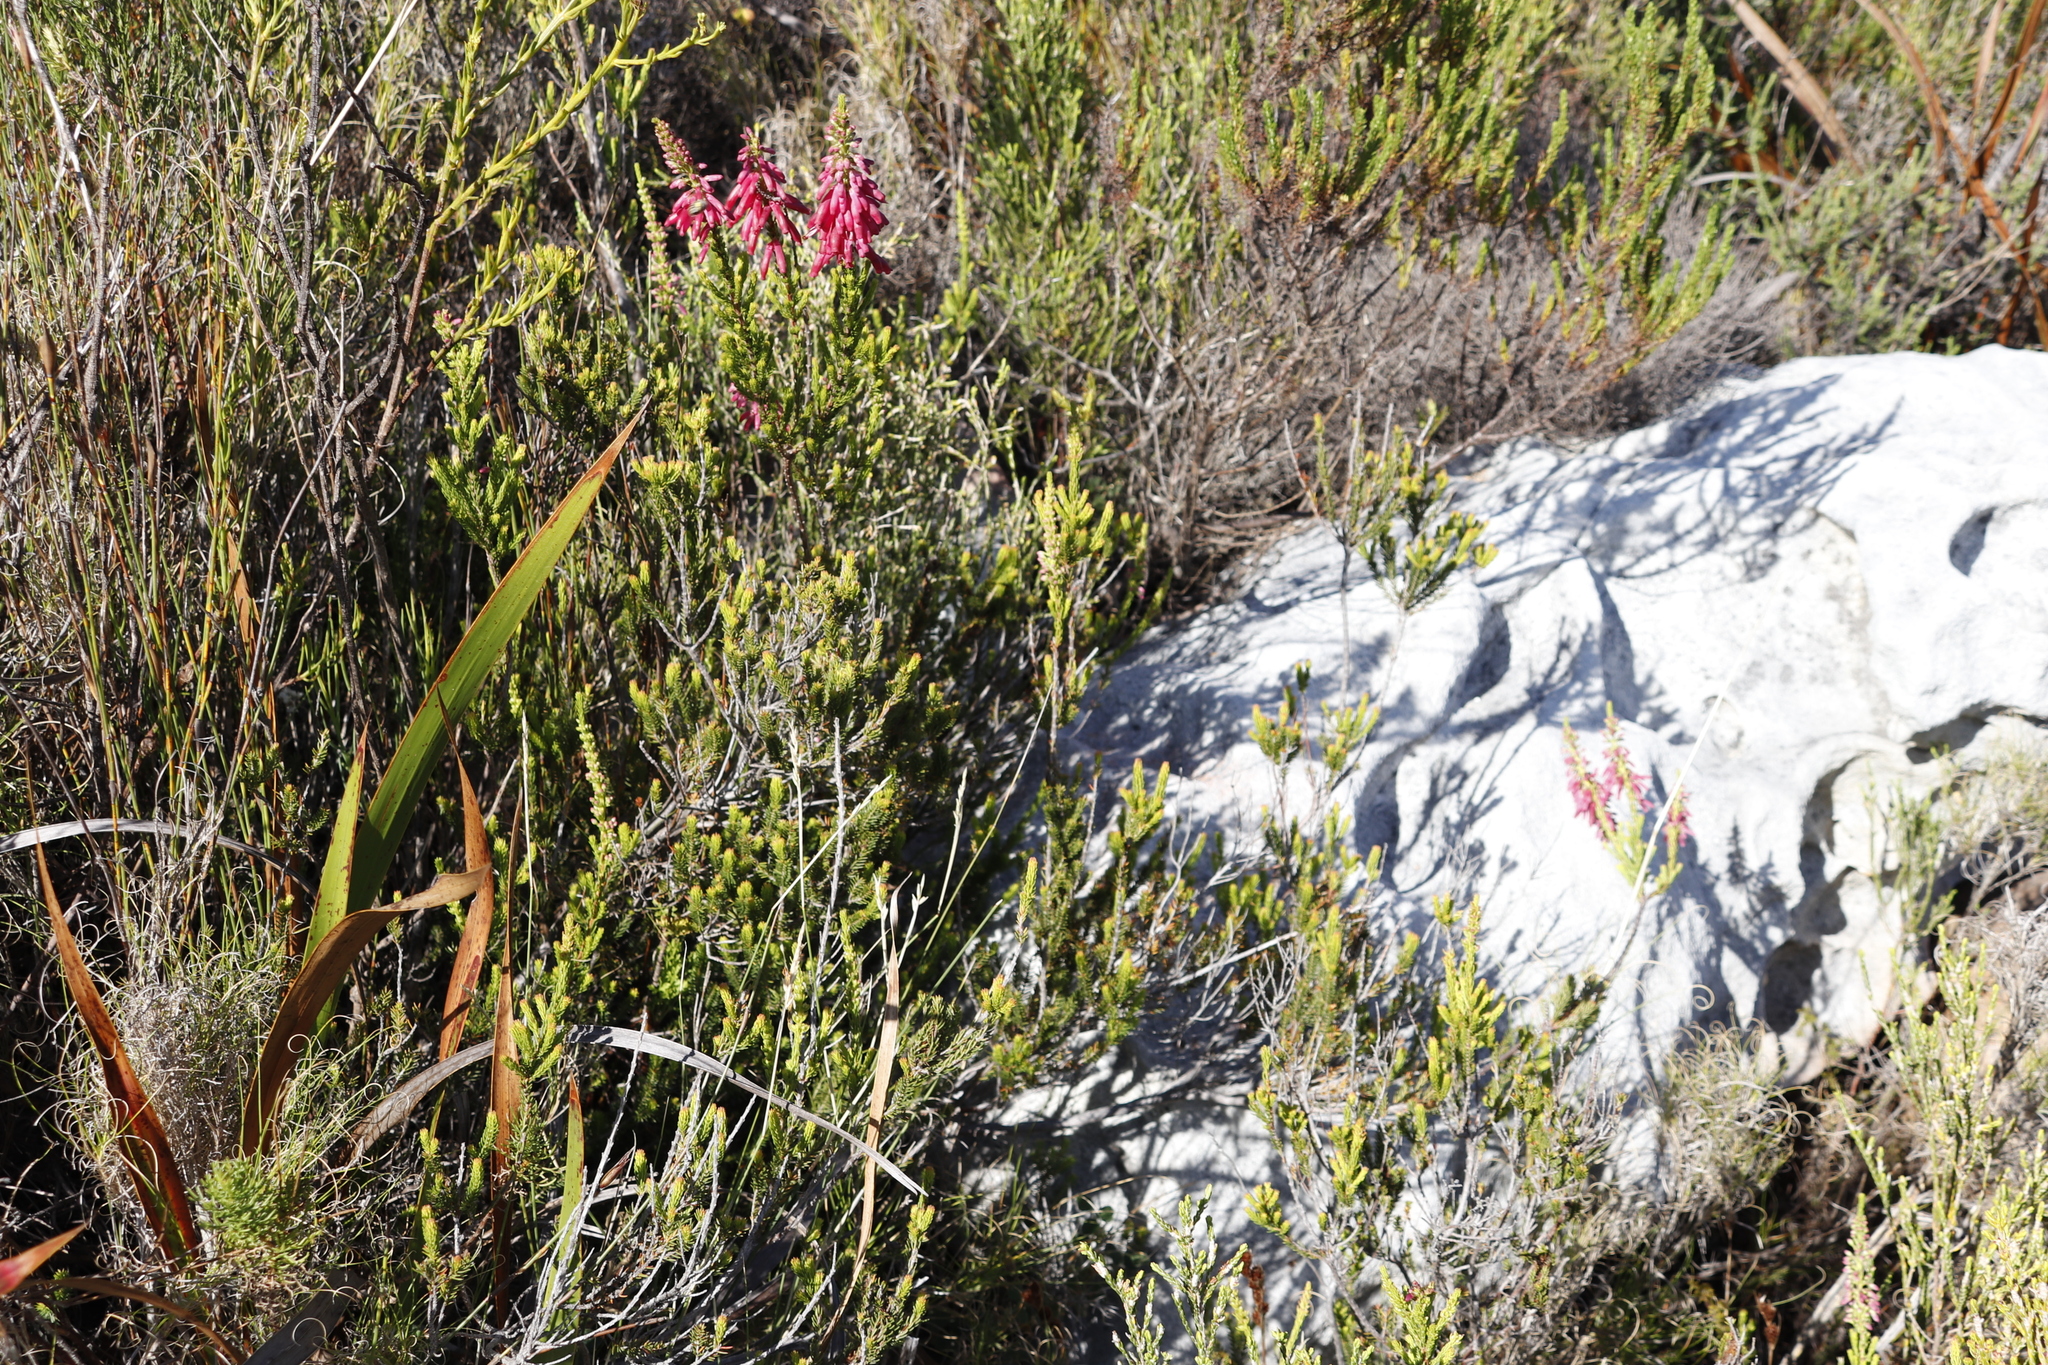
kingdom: Plantae
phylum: Tracheophyta
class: Magnoliopsida
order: Ericales
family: Ericaceae
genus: Erica
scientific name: Erica mammosa
